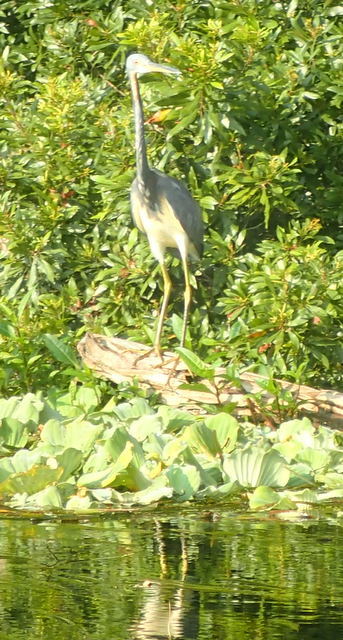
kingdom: Animalia
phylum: Chordata
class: Aves
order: Pelecaniformes
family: Ardeidae
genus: Egretta
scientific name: Egretta tricolor
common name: Tricolored heron
